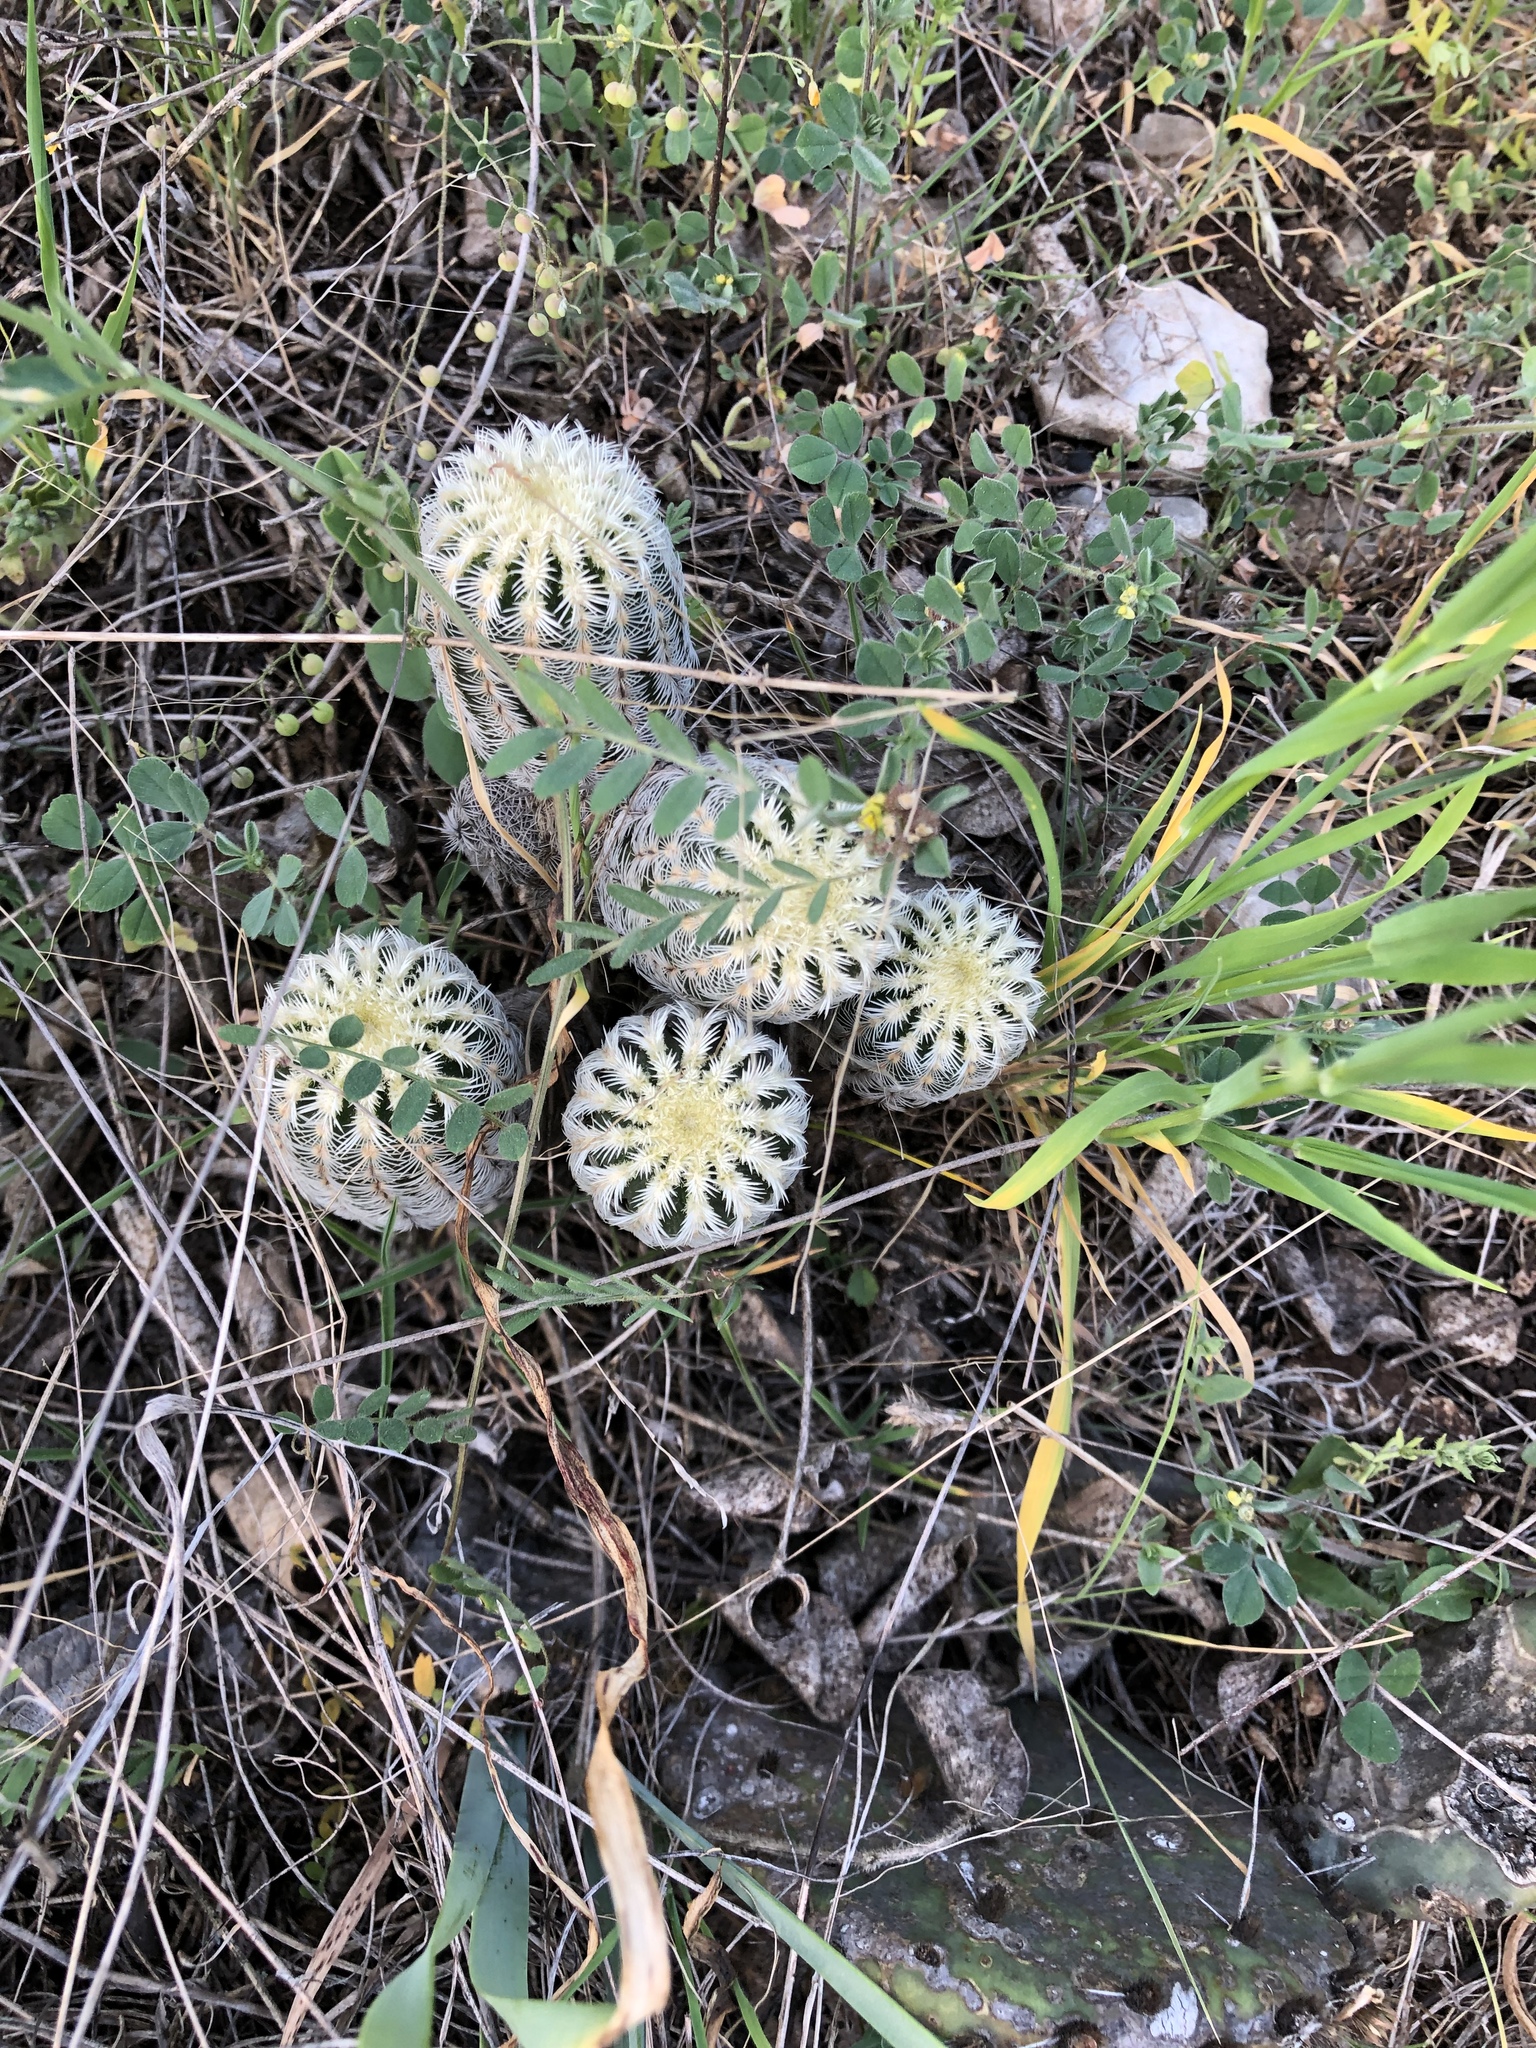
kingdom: Plantae
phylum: Tracheophyta
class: Magnoliopsida
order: Caryophyllales
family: Cactaceae
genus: Echinocereus
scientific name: Echinocereus reichenbachii
